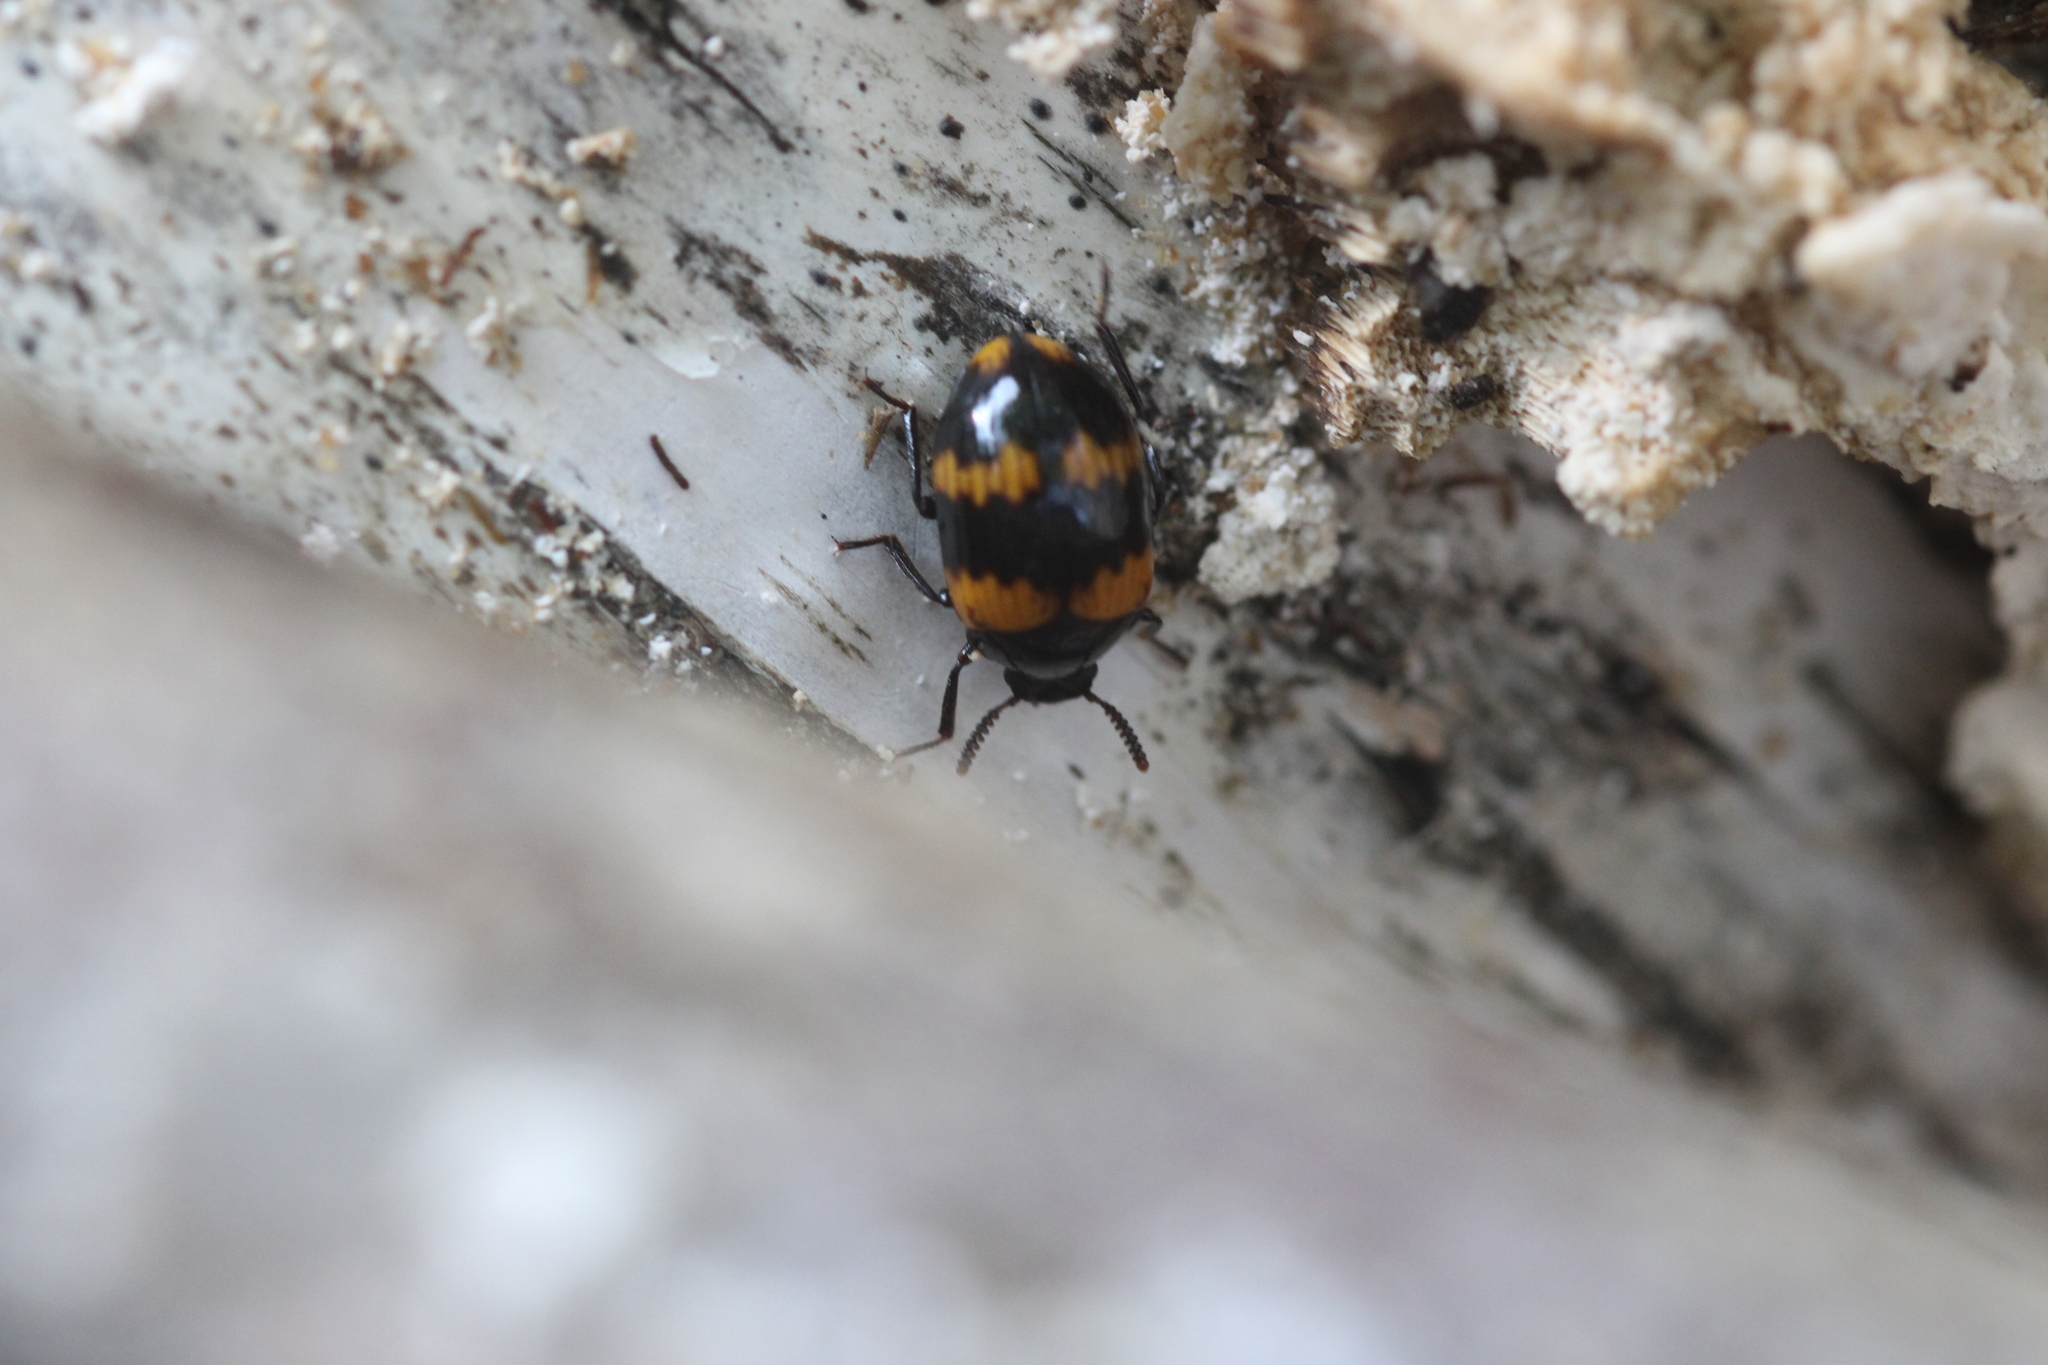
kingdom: Animalia
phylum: Arthropoda
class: Insecta
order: Coleoptera
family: Tenebrionidae
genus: Diaperis
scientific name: Diaperis boleti
